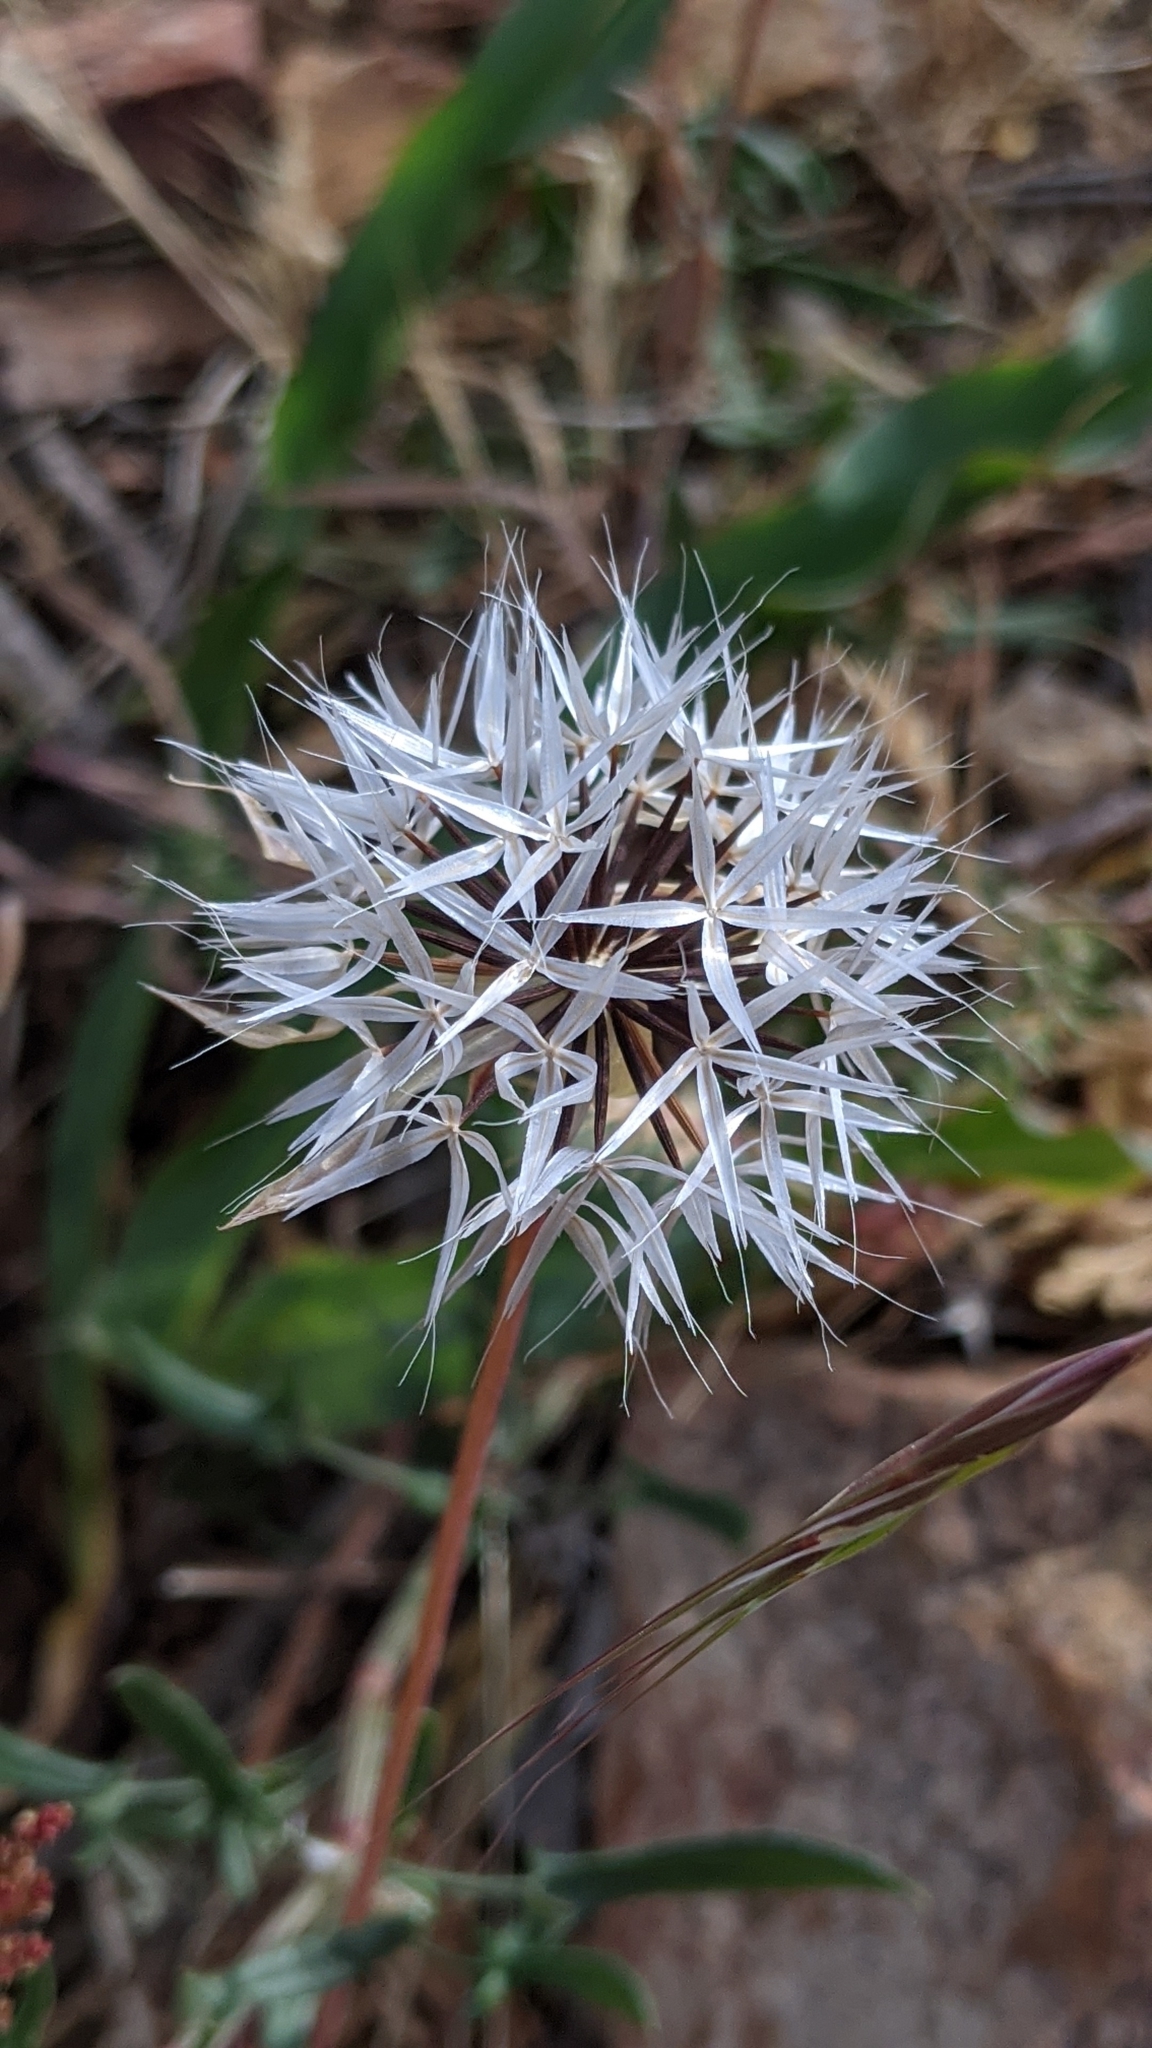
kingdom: Plantae
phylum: Tracheophyta
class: Magnoliopsida
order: Asterales
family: Asteraceae
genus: Microseris
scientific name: Microseris lindleyi
